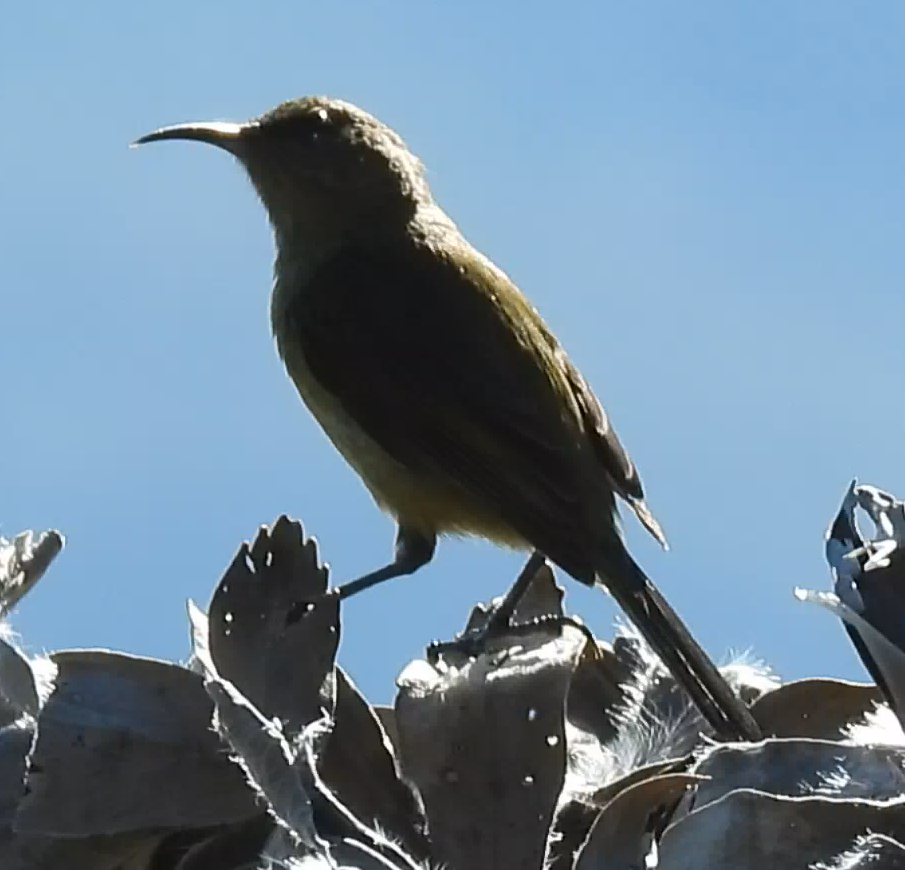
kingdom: Animalia
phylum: Chordata
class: Aves
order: Passeriformes
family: Nectariniidae
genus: Anthobaphes
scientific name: Anthobaphes violacea
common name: Orange-breasted sunbird
